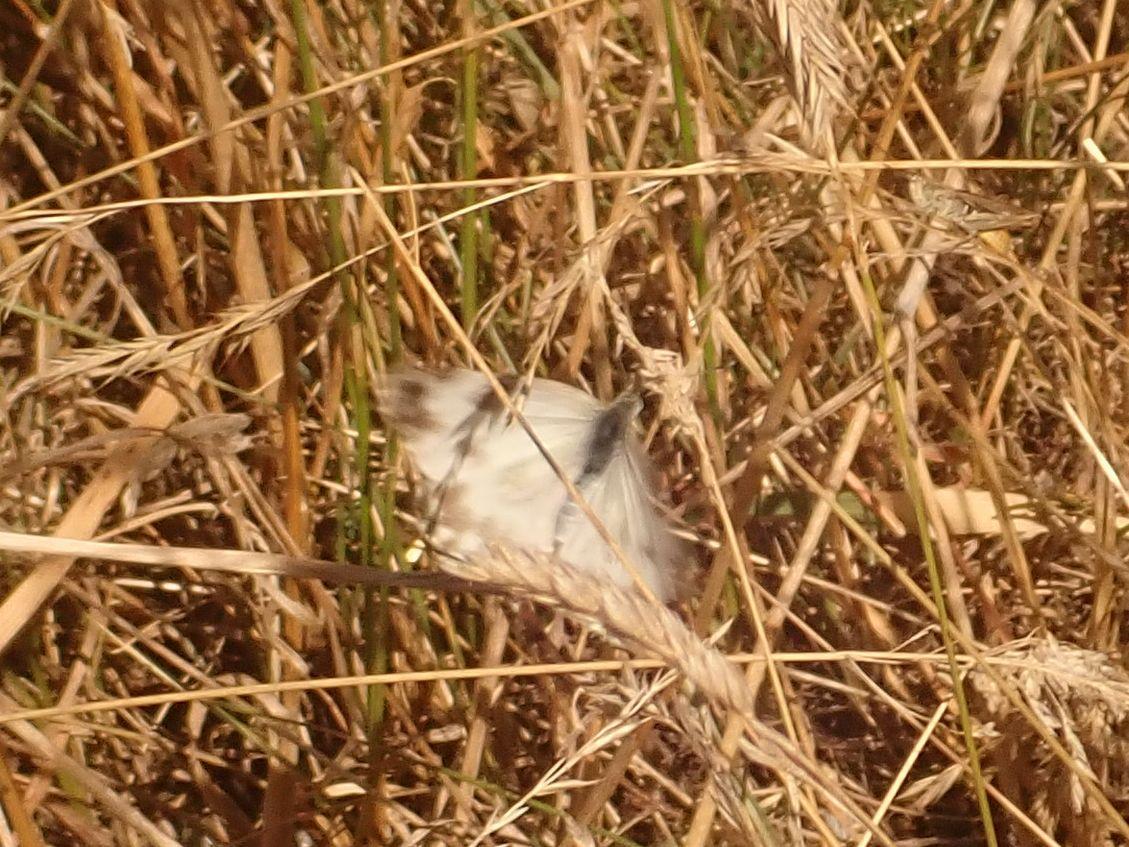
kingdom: Animalia
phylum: Arthropoda
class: Insecta
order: Lepidoptera
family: Pieridae
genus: Pontia
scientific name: Pontia edusa
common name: Eastern bath white
